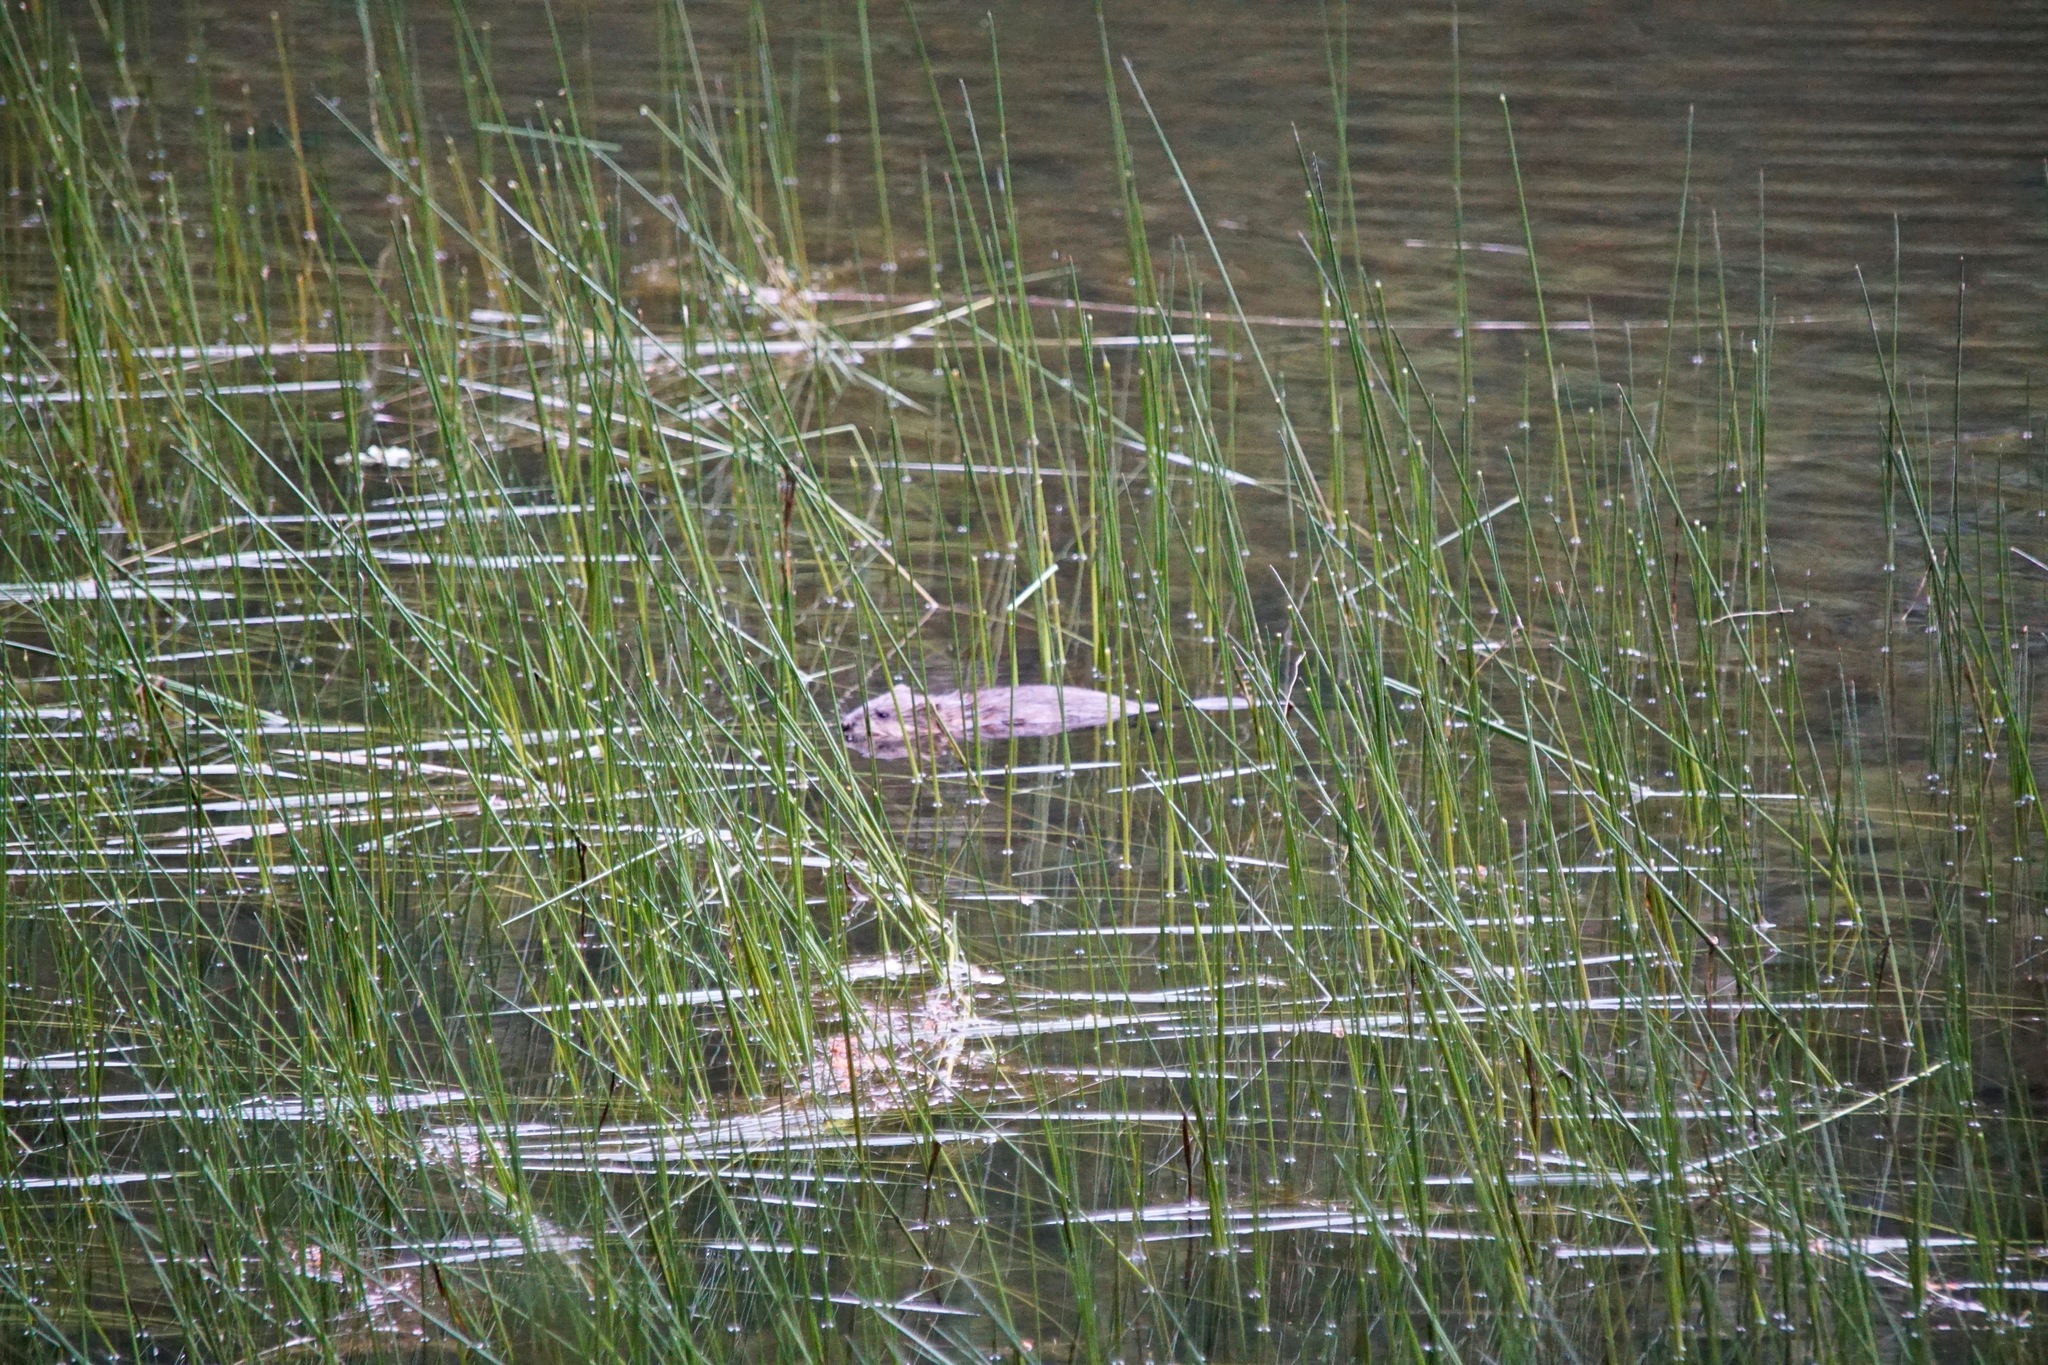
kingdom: Animalia
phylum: Chordata
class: Mammalia
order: Rodentia
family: Cricetidae
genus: Ondatra
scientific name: Ondatra zibethicus
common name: Muskrat
